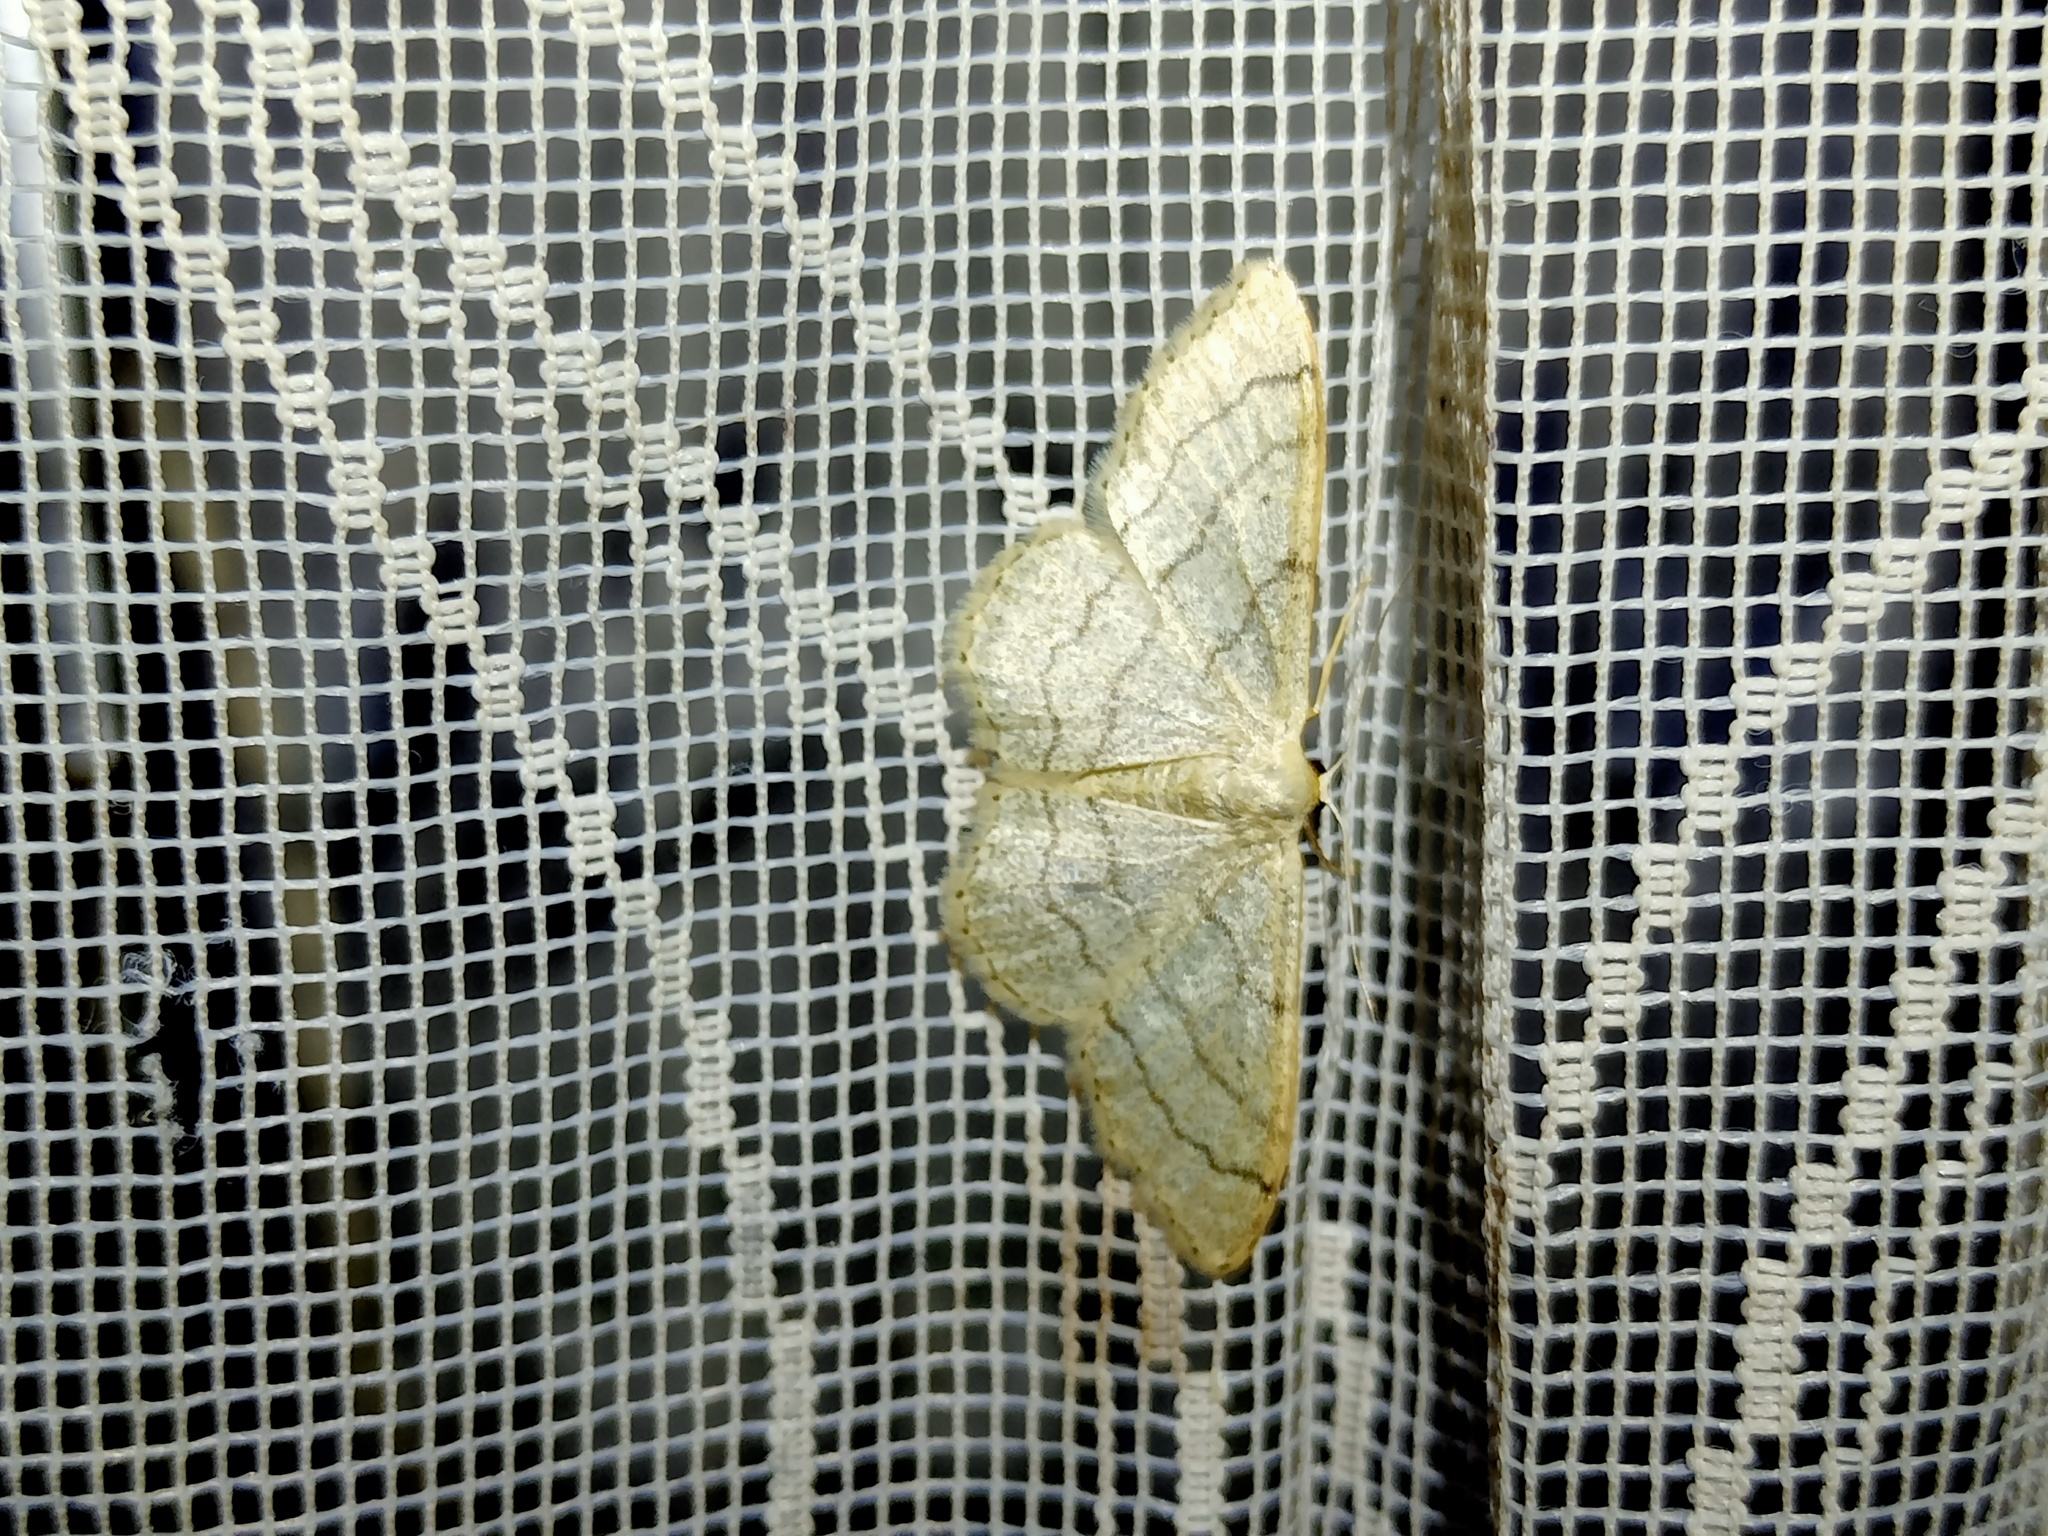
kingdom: Animalia
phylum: Arthropoda
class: Insecta
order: Lepidoptera
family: Geometridae
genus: Idaea
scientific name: Idaea aversata
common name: Riband wave
